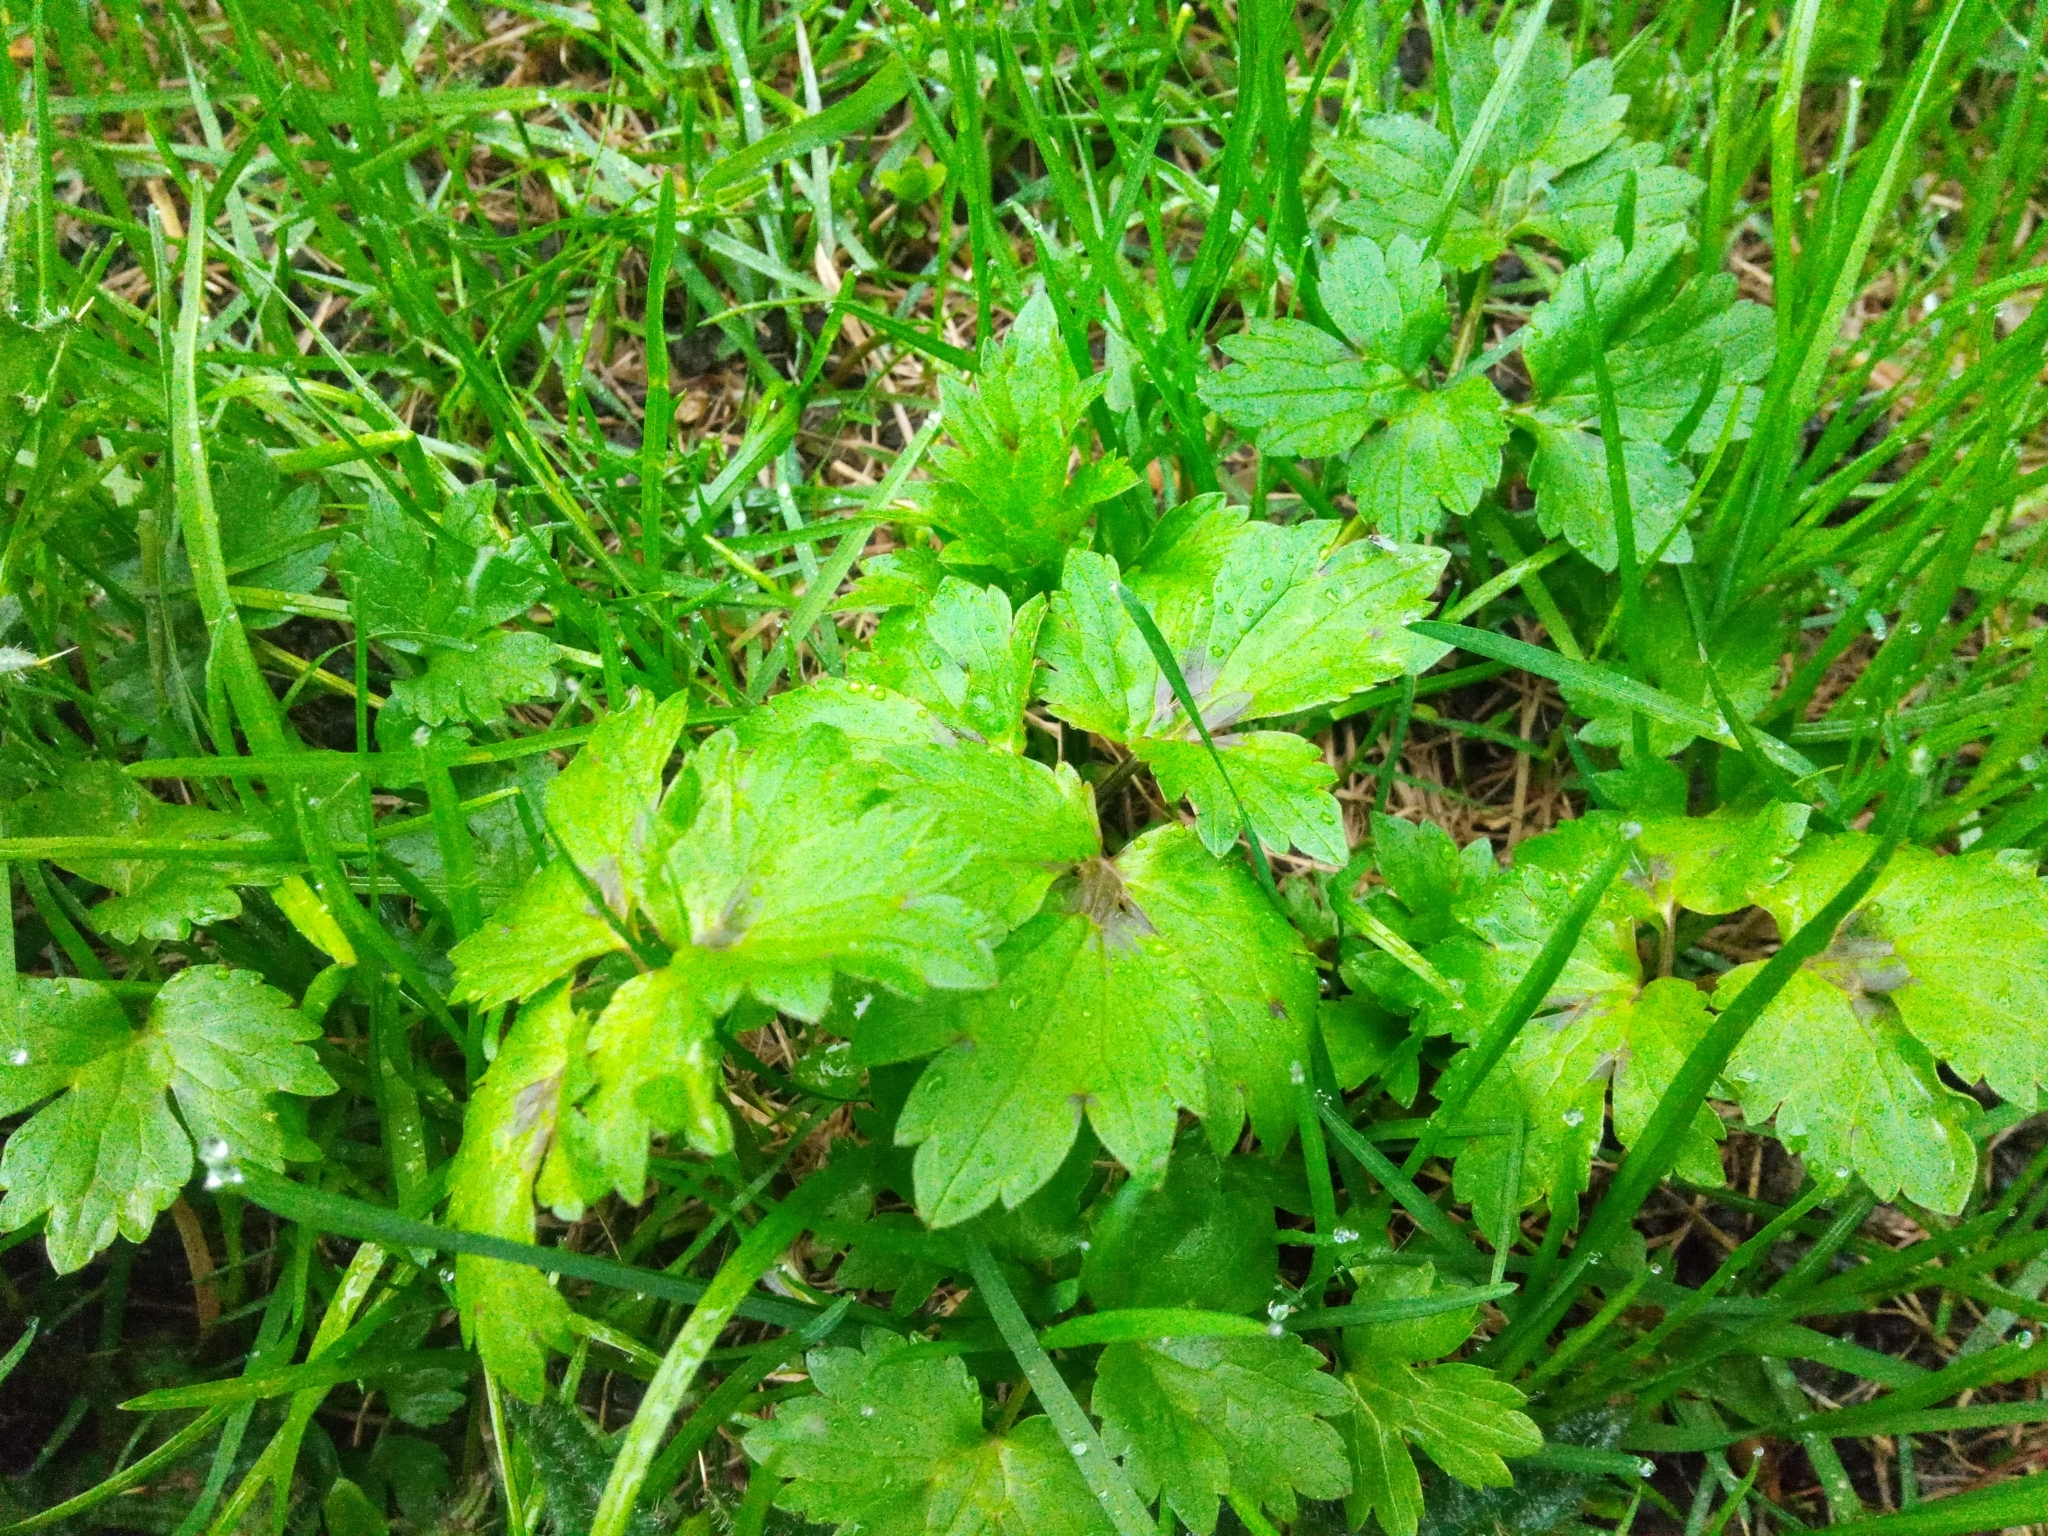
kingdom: Plantae
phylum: Tracheophyta
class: Magnoliopsida
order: Ranunculales
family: Ranunculaceae
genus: Ranunculus
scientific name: Ranunculus repens
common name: Creeping buttercup
